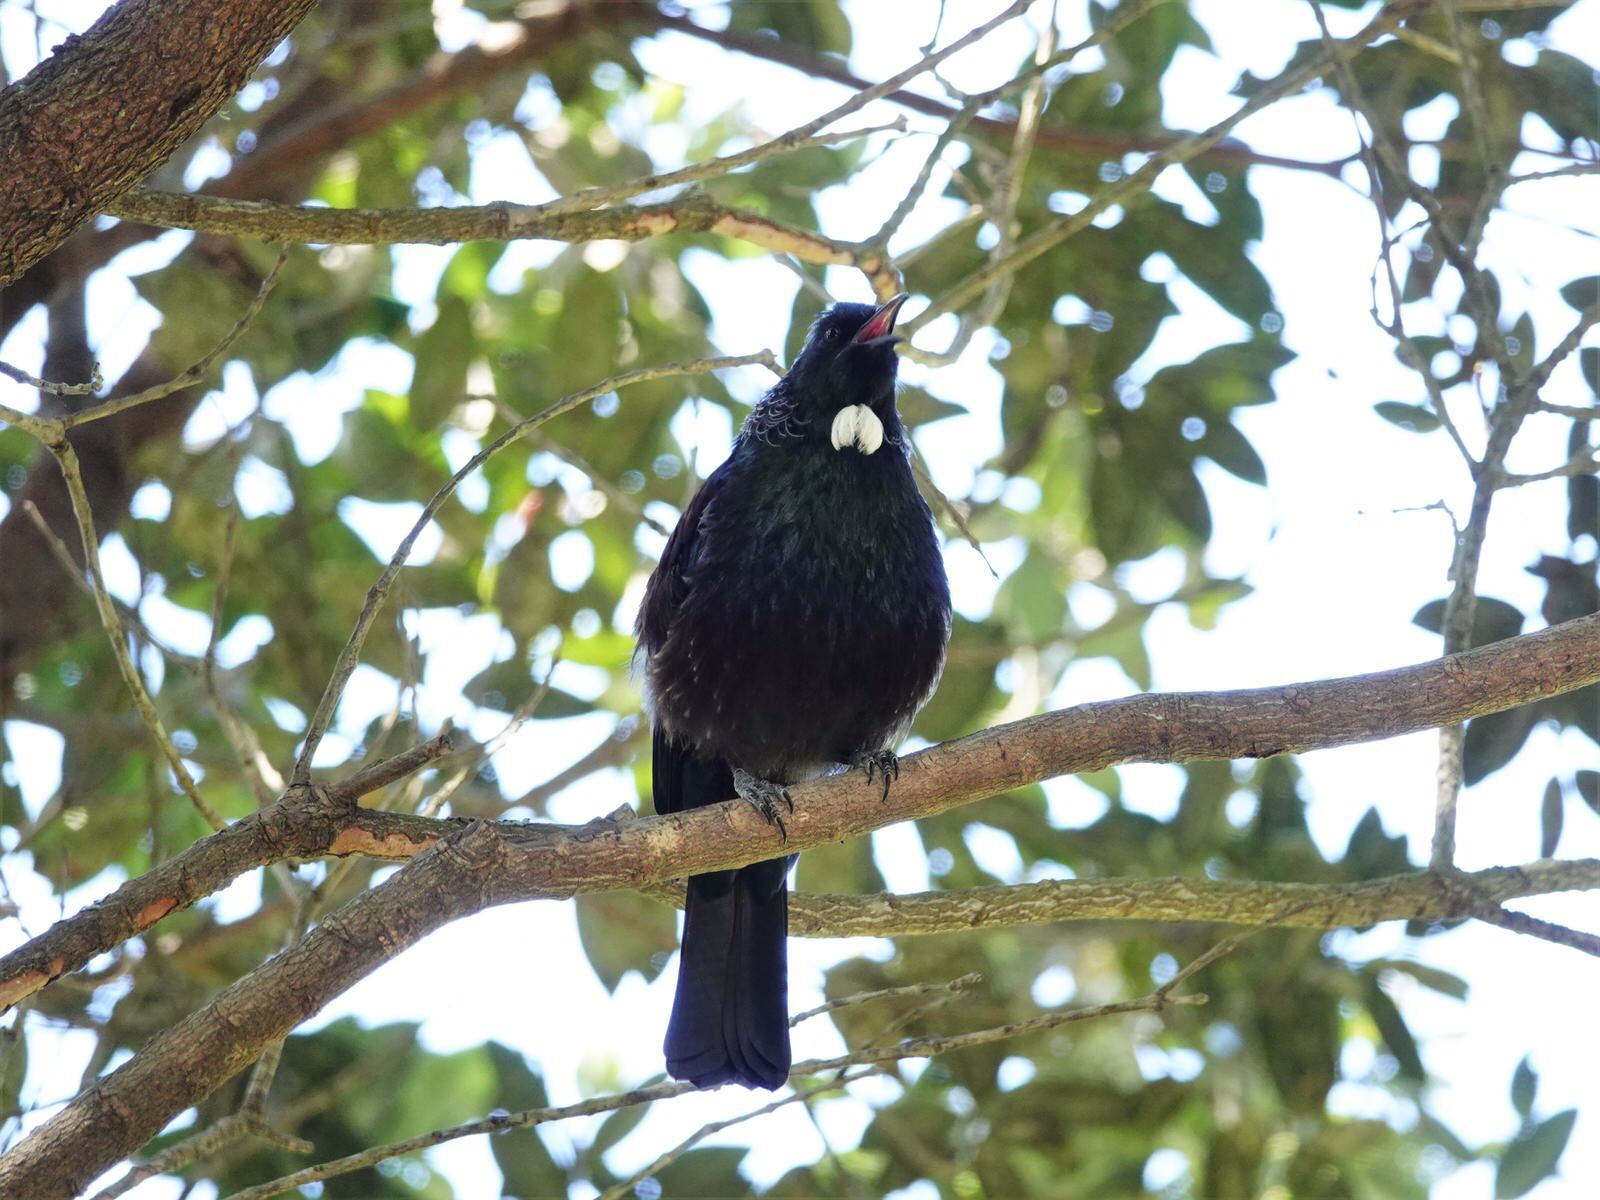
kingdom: Animalia
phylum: Chordata
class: Aves
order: Passeriformes
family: Meliphagidae
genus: Prosthemadera
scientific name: Prosthemadera novaeseelandiae
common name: Tui
